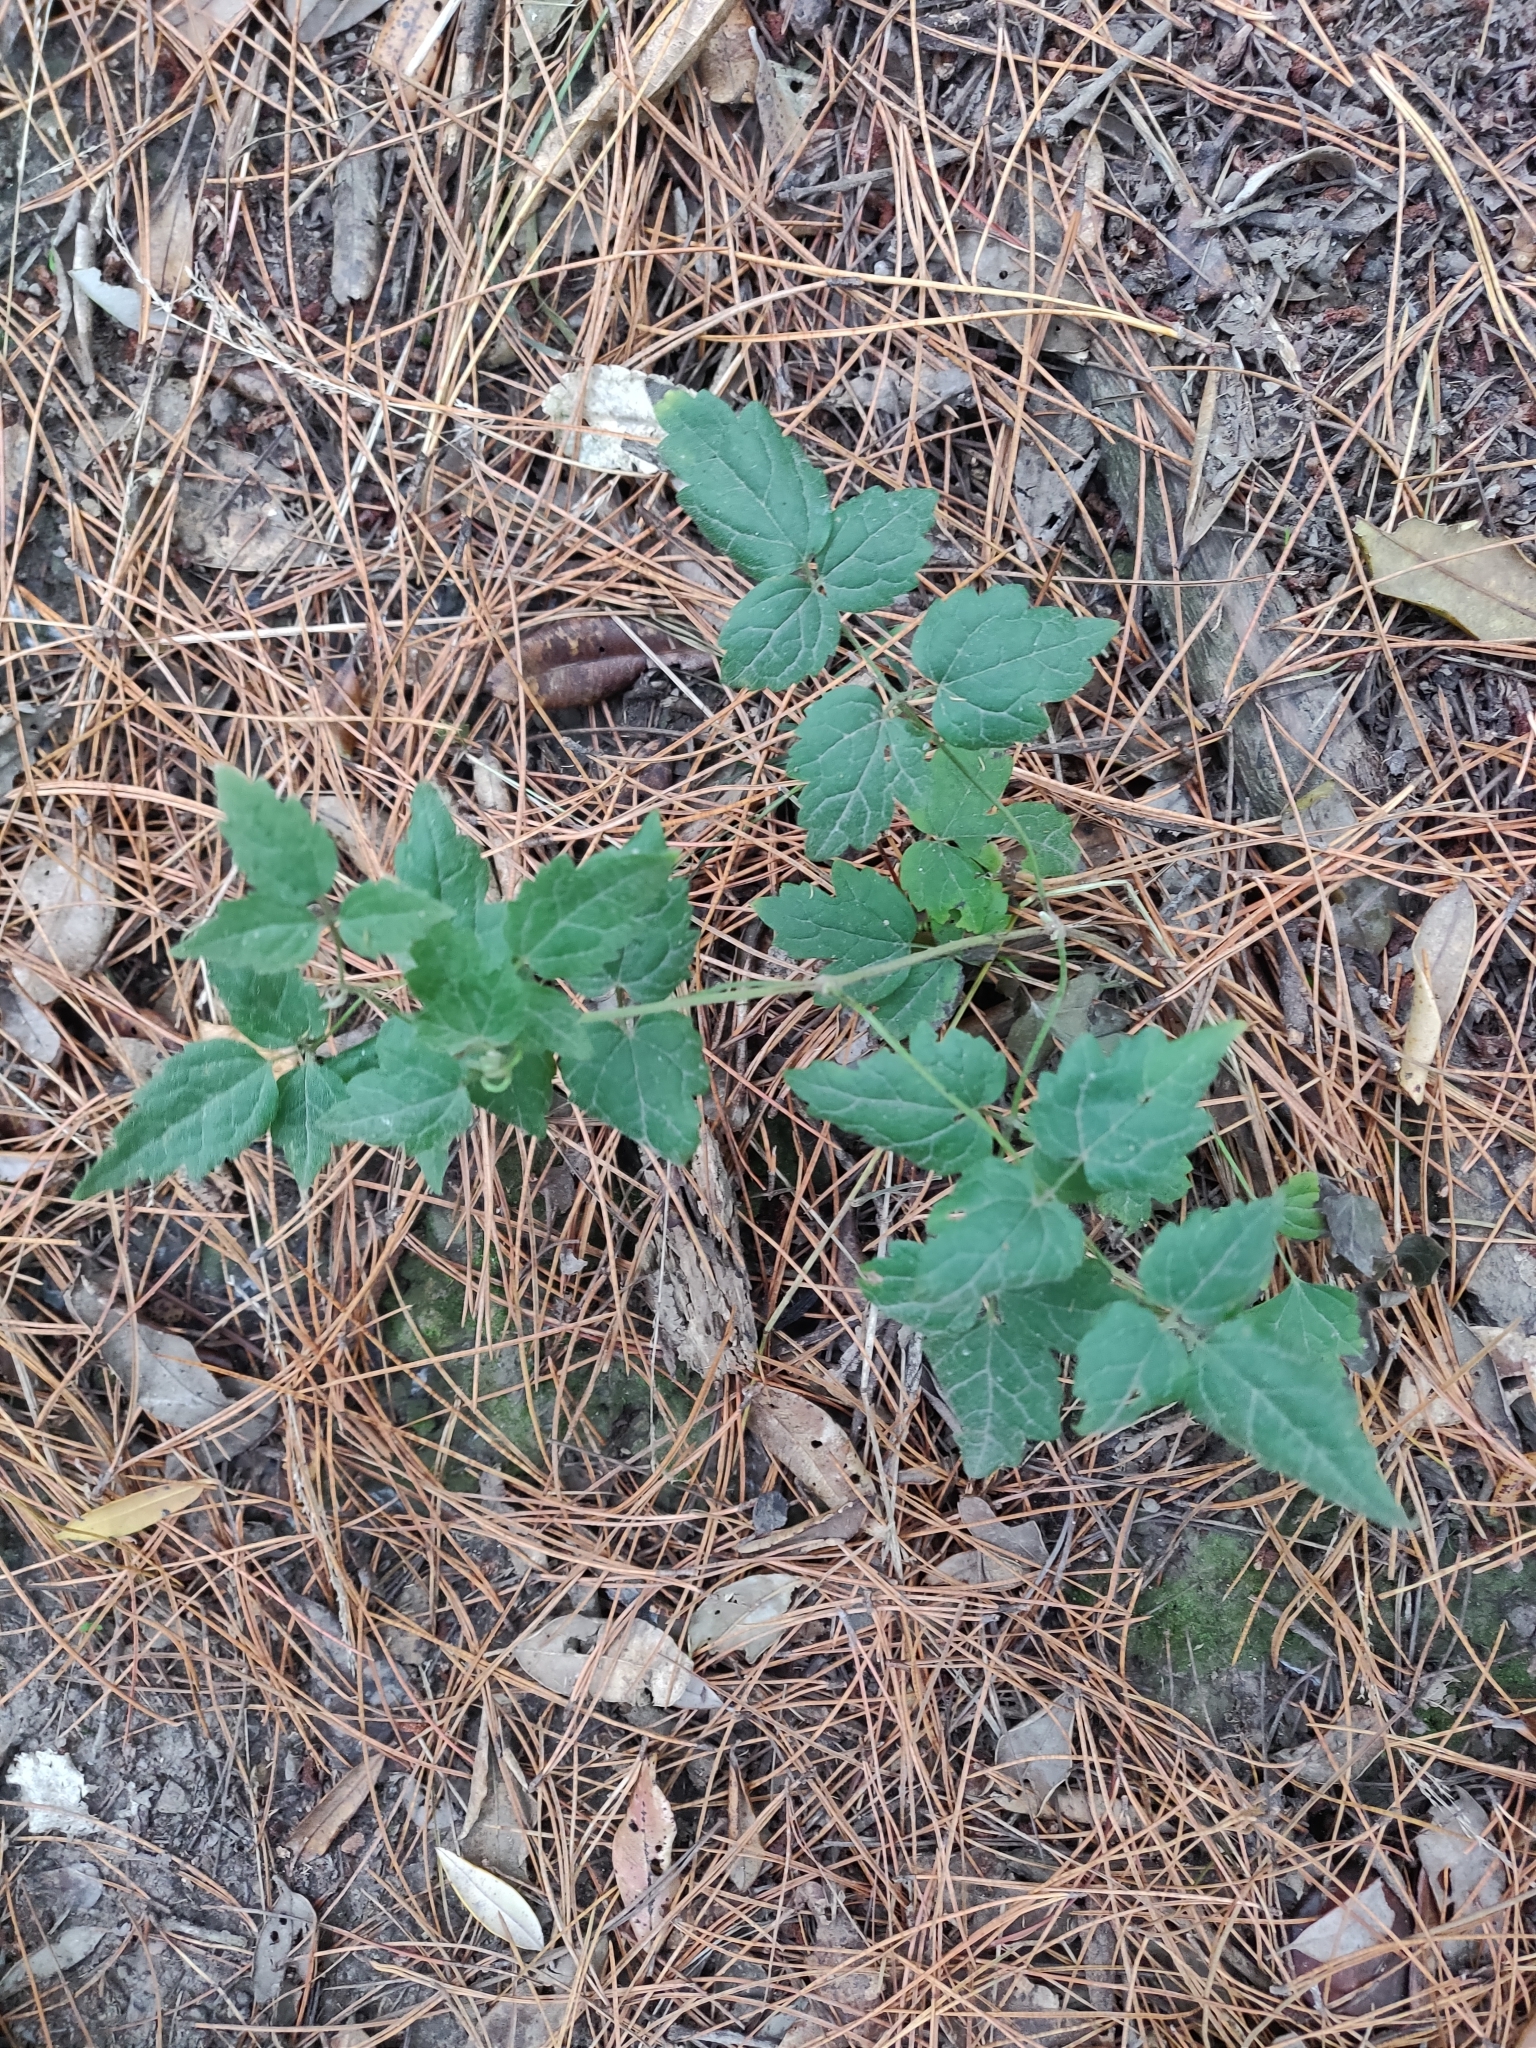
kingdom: Plantae
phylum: Tracheophyta
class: Magnoliopsida
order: Ranunculales
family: Ranunculaceae
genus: Clematis
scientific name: Clematis vitalba
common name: Evergreen clematis
